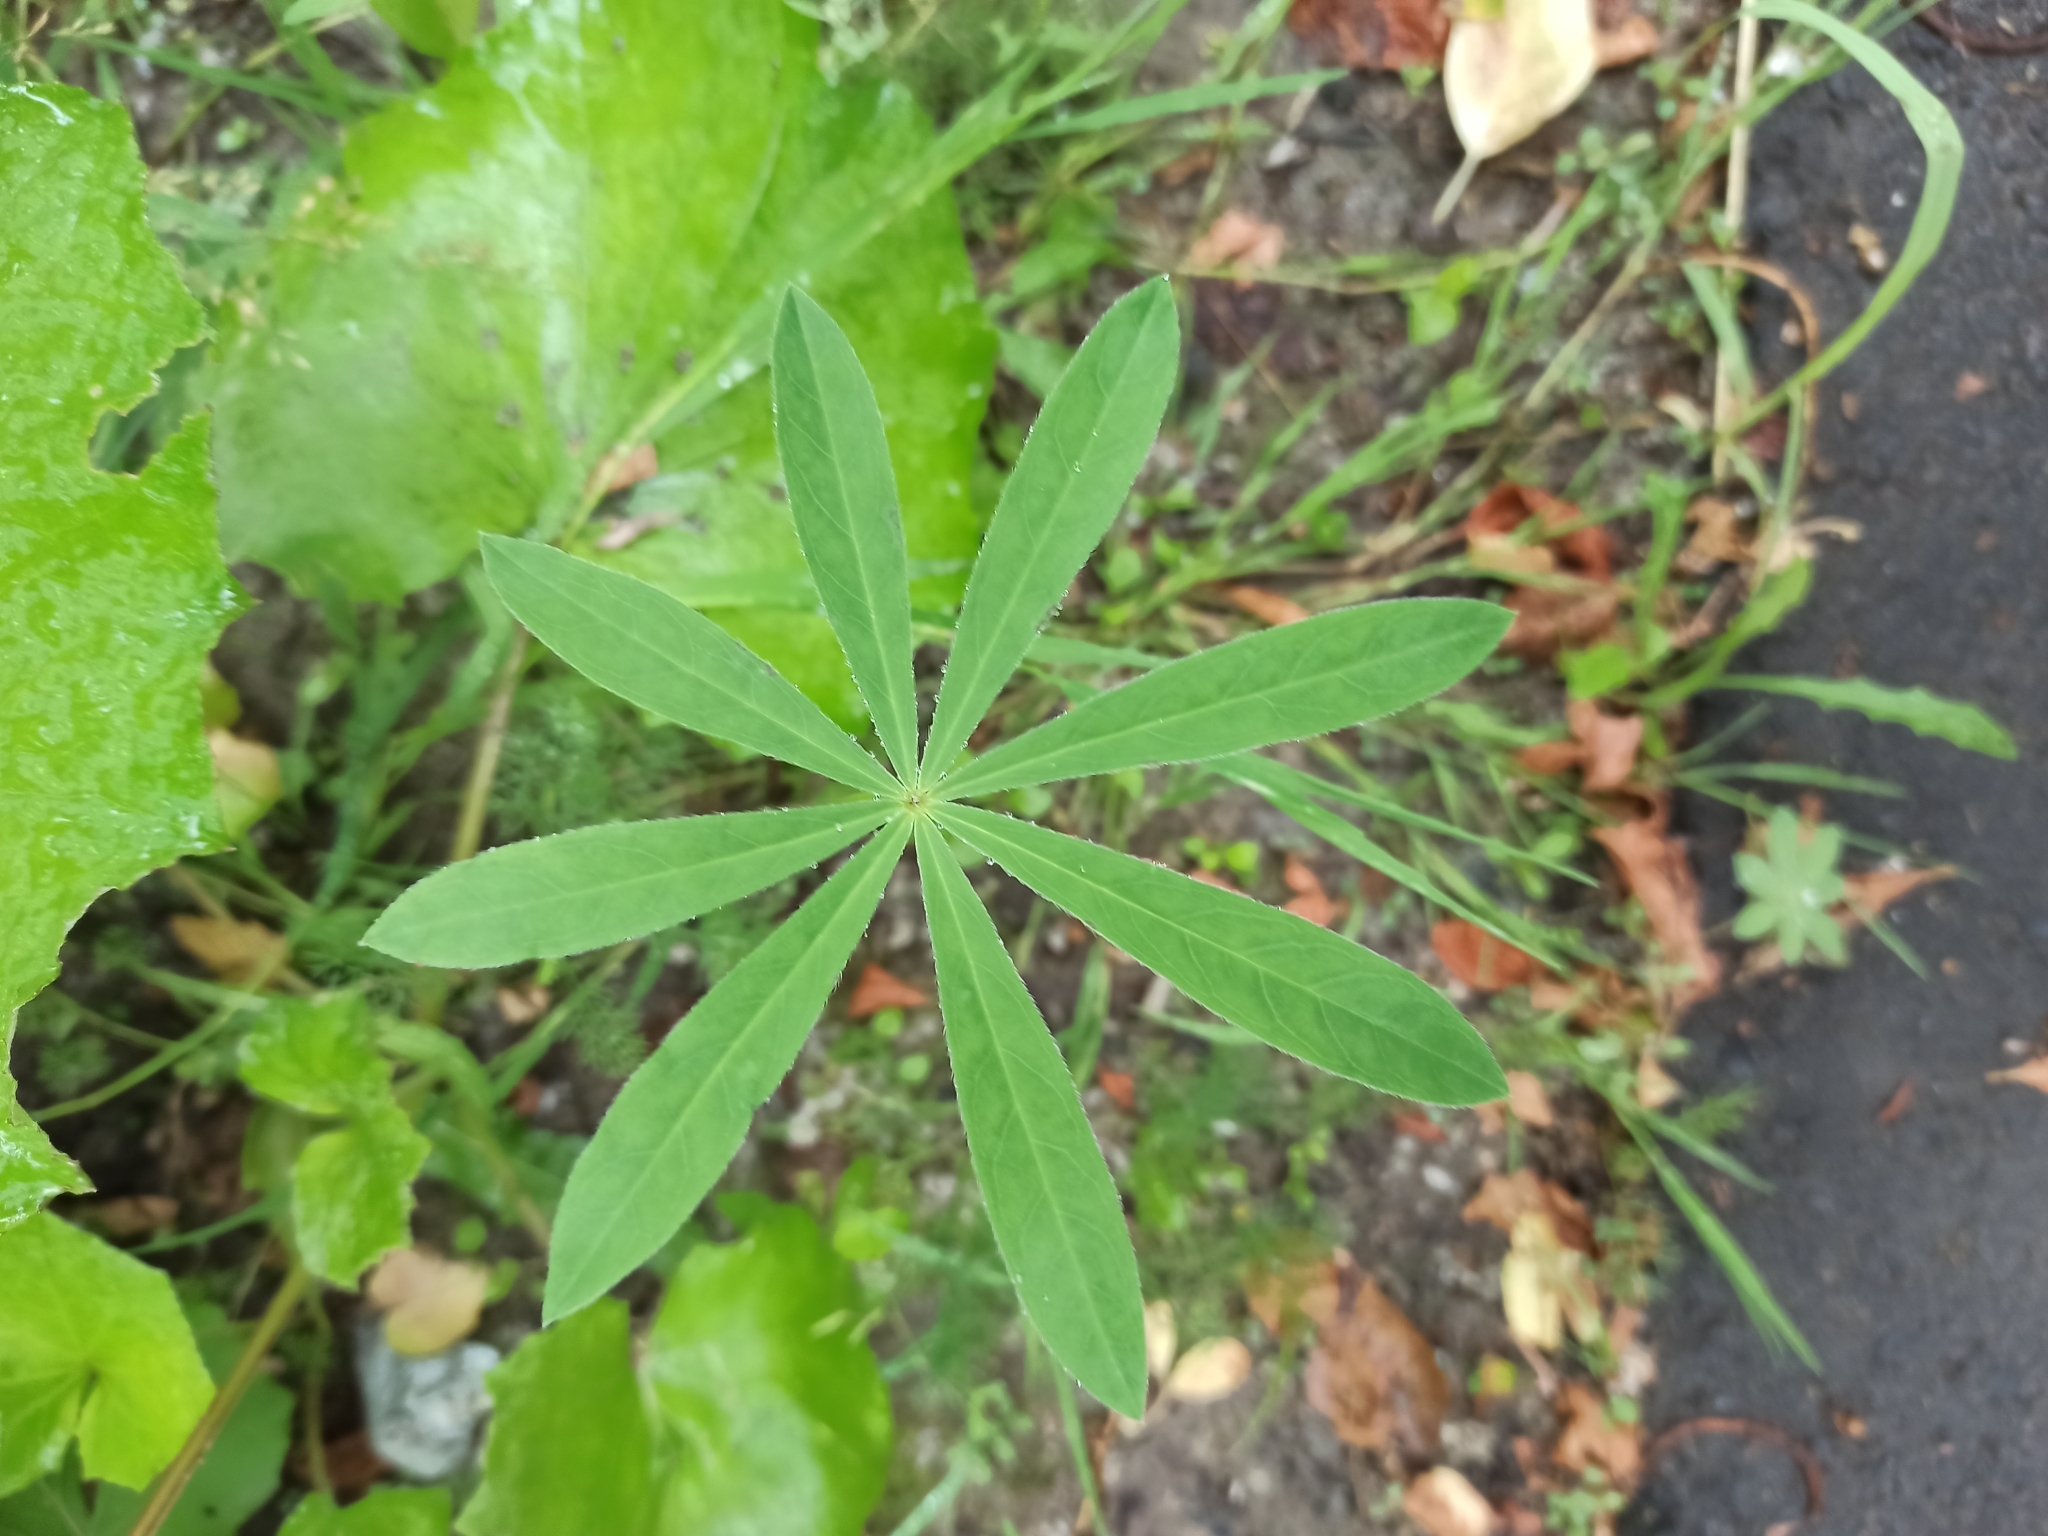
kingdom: Plantae
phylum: Tracheophyta
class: Magnoliopsida
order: Fabales
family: Fabaceae
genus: Lupinus
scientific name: Lupinus polyphyllus
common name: Garden lupin
